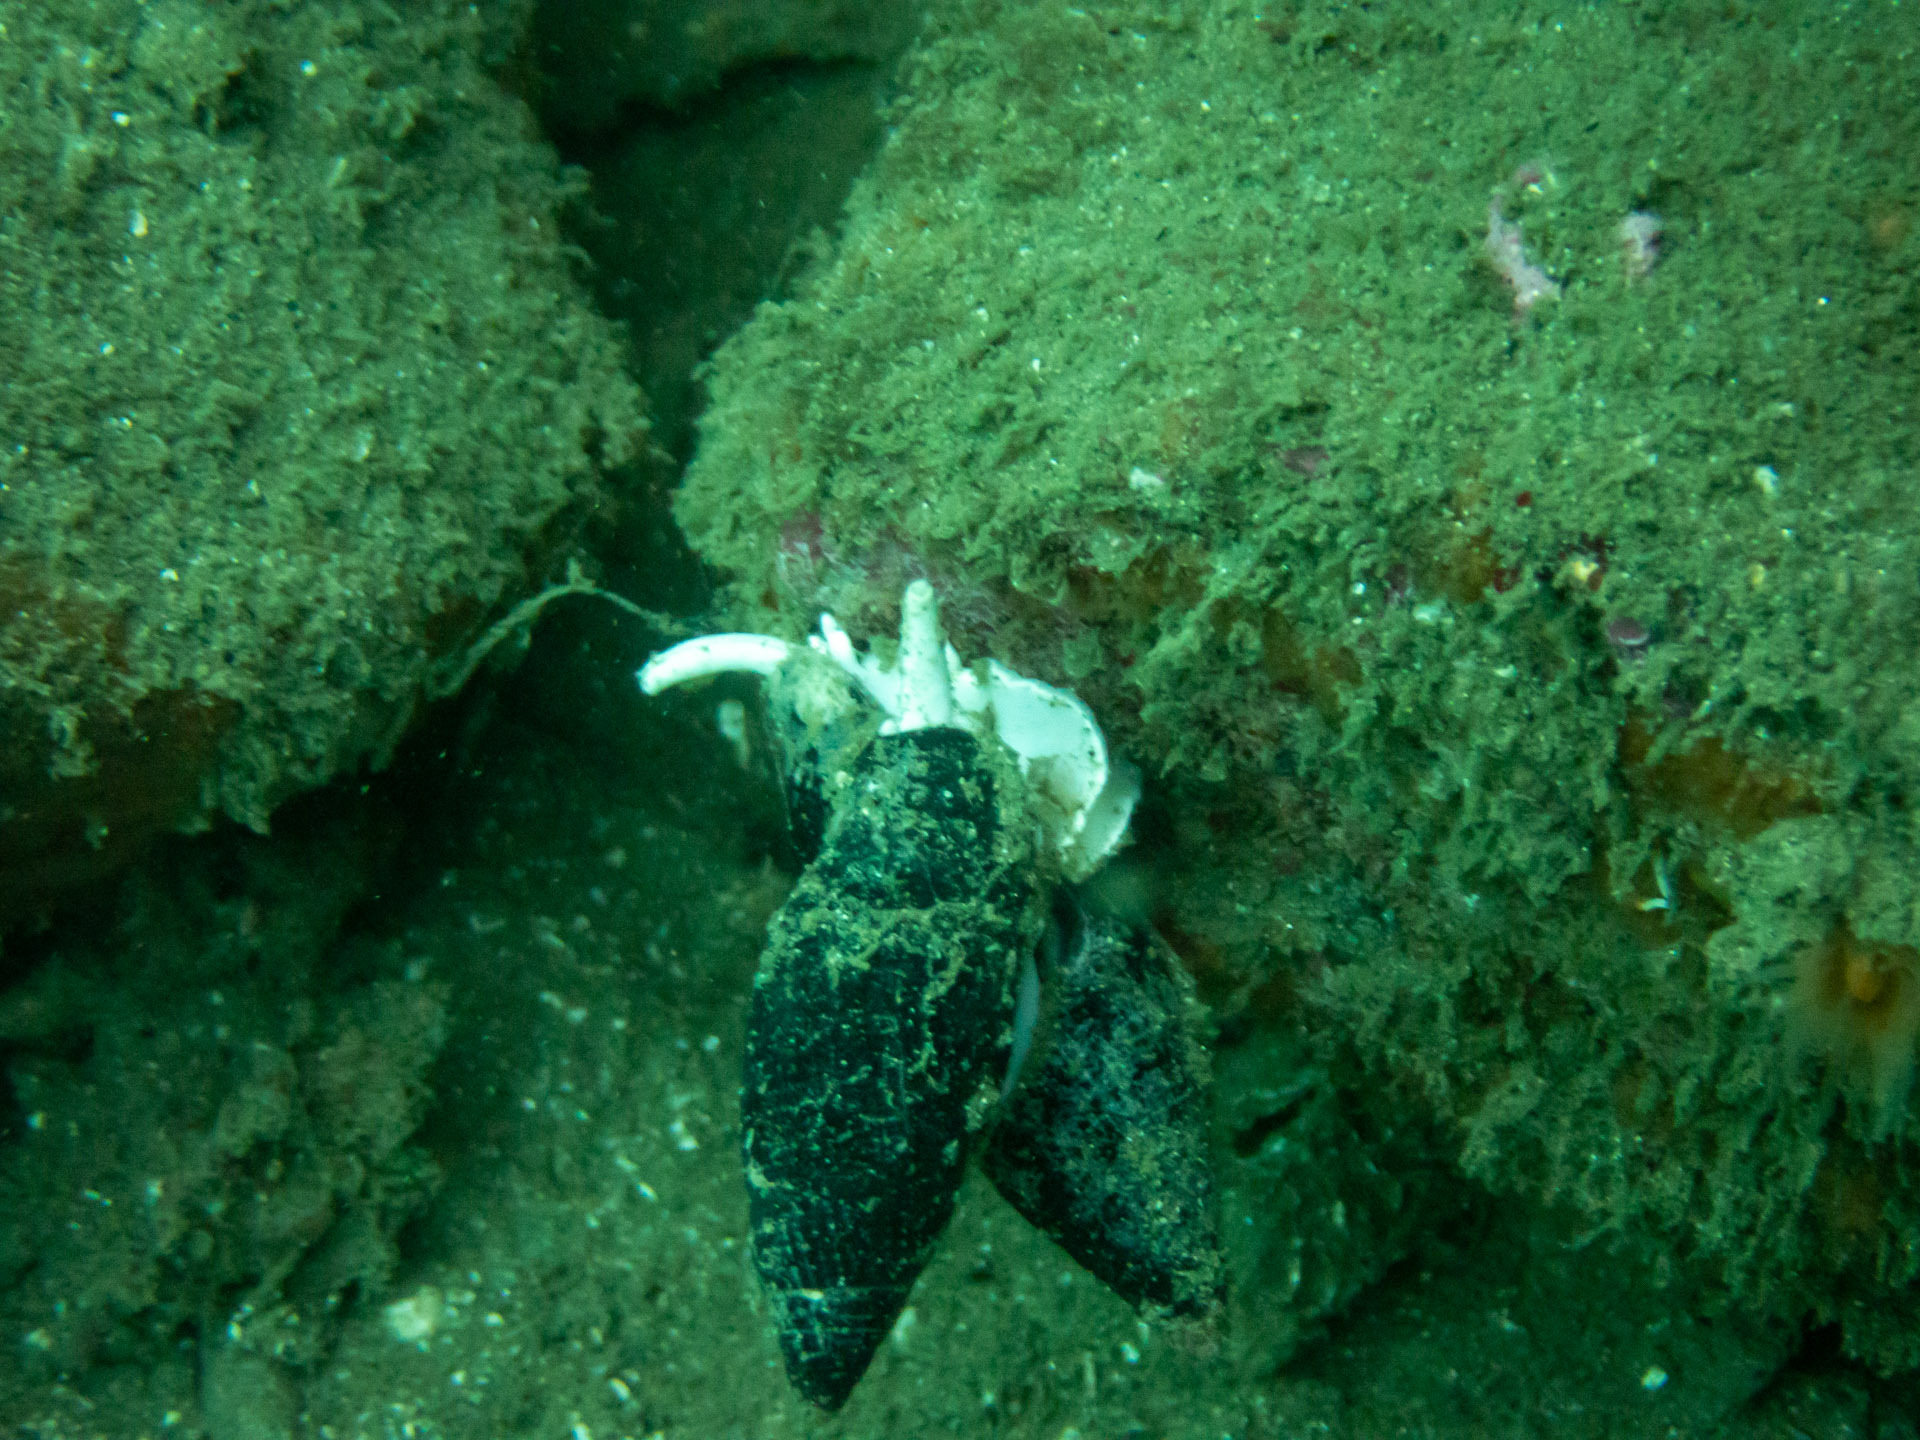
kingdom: Animalia
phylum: Mollusca
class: Gastropoda
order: Neogastropoda
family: Mitridae
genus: Atrimitra
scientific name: Atrimitra idae
